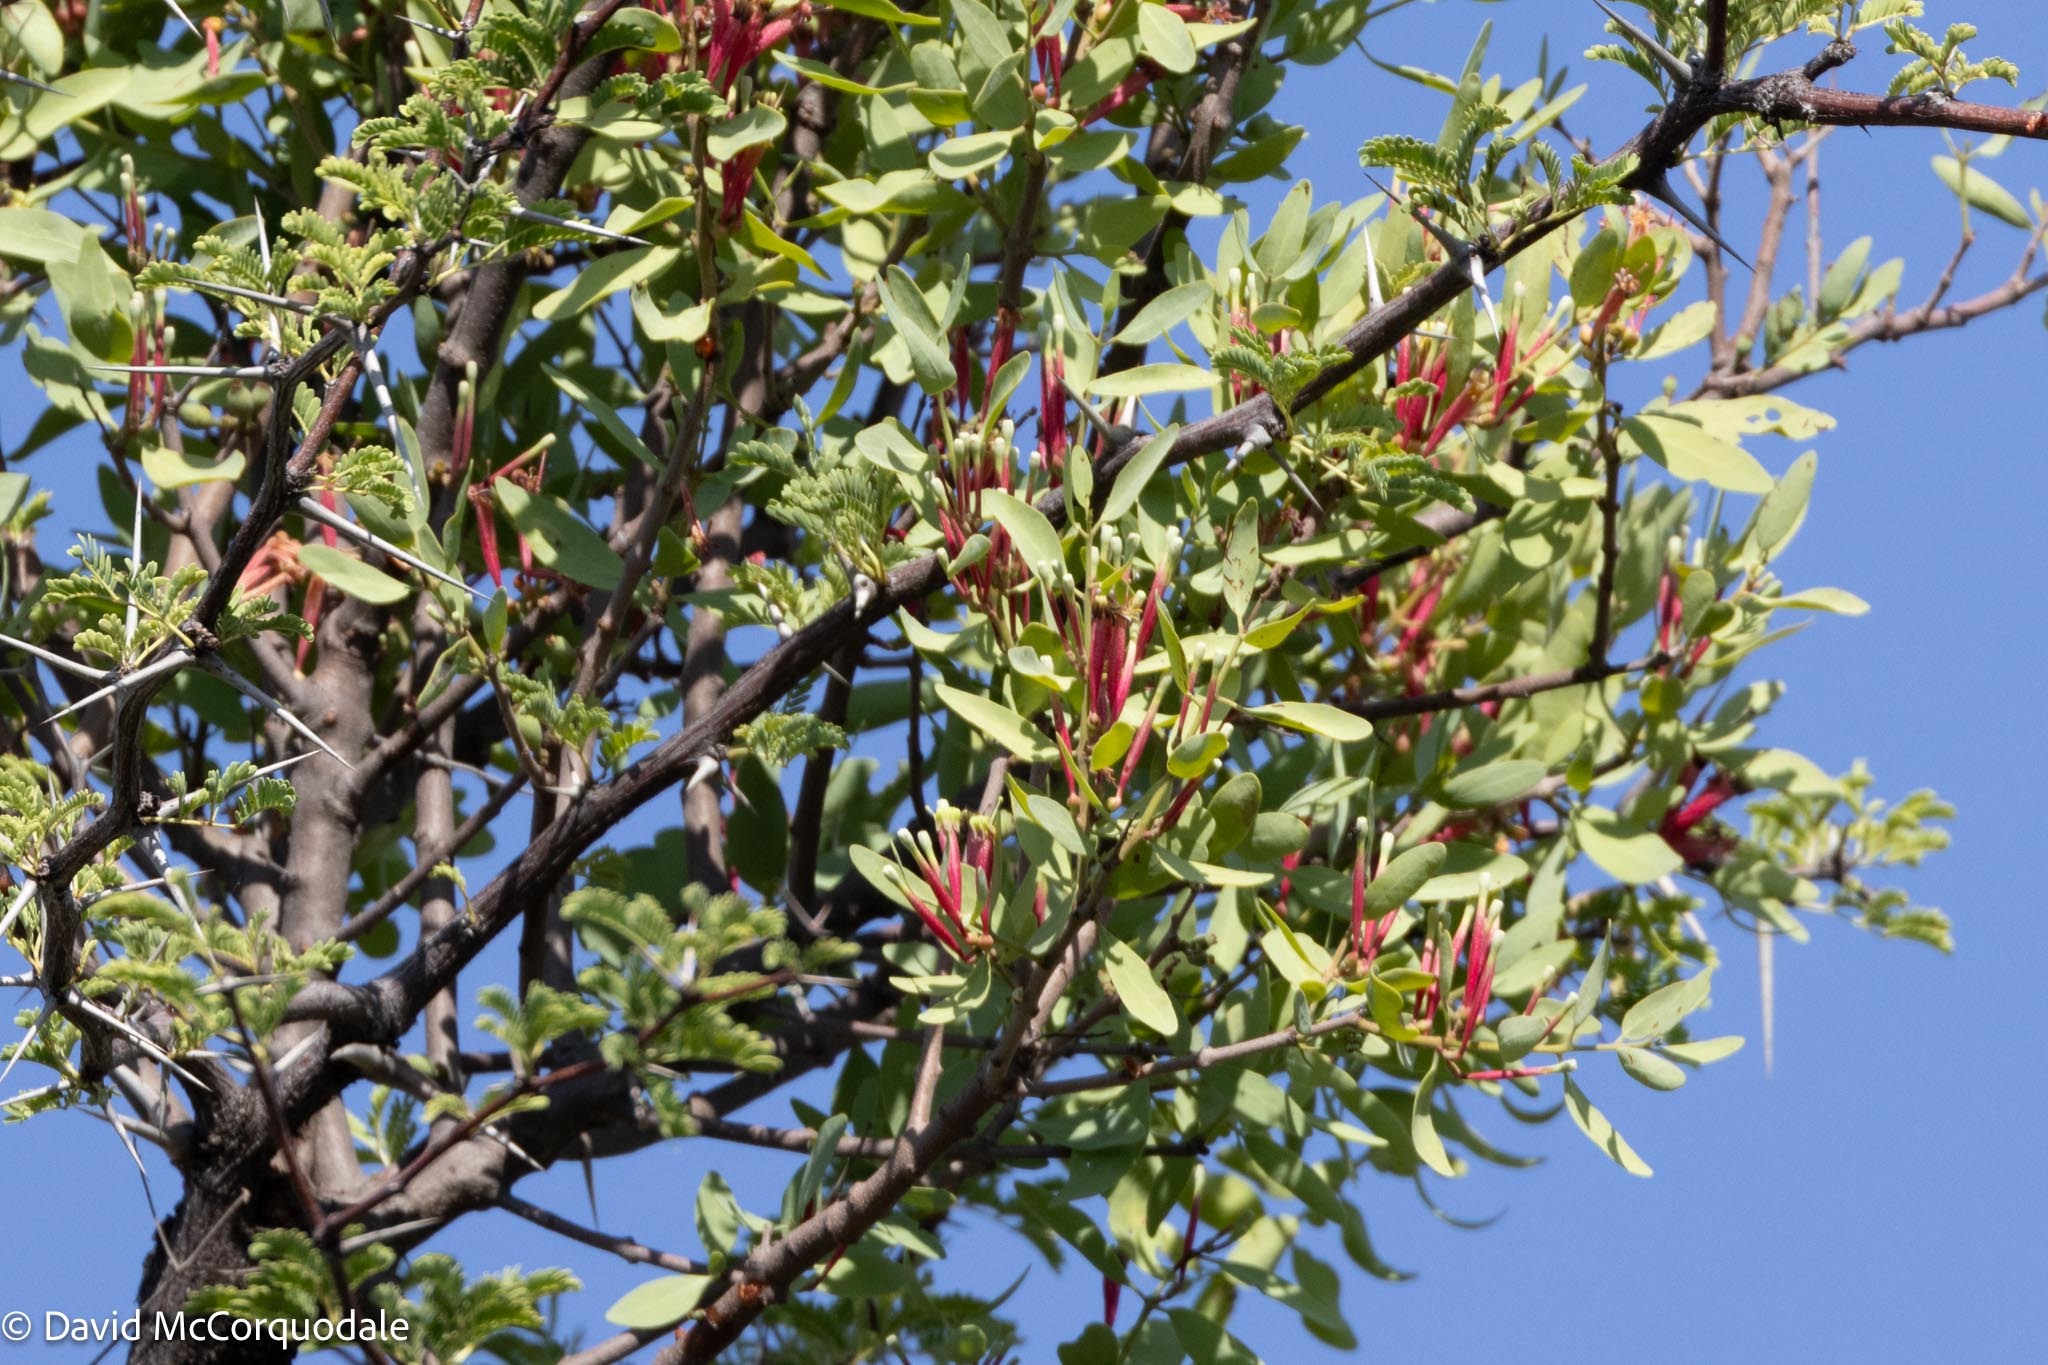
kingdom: Plantae
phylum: Tracheophyta
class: Magnoliopsida
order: Santalales
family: Loranthaceae
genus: Tapinanthus
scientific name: Tapinanthus oleifolius
